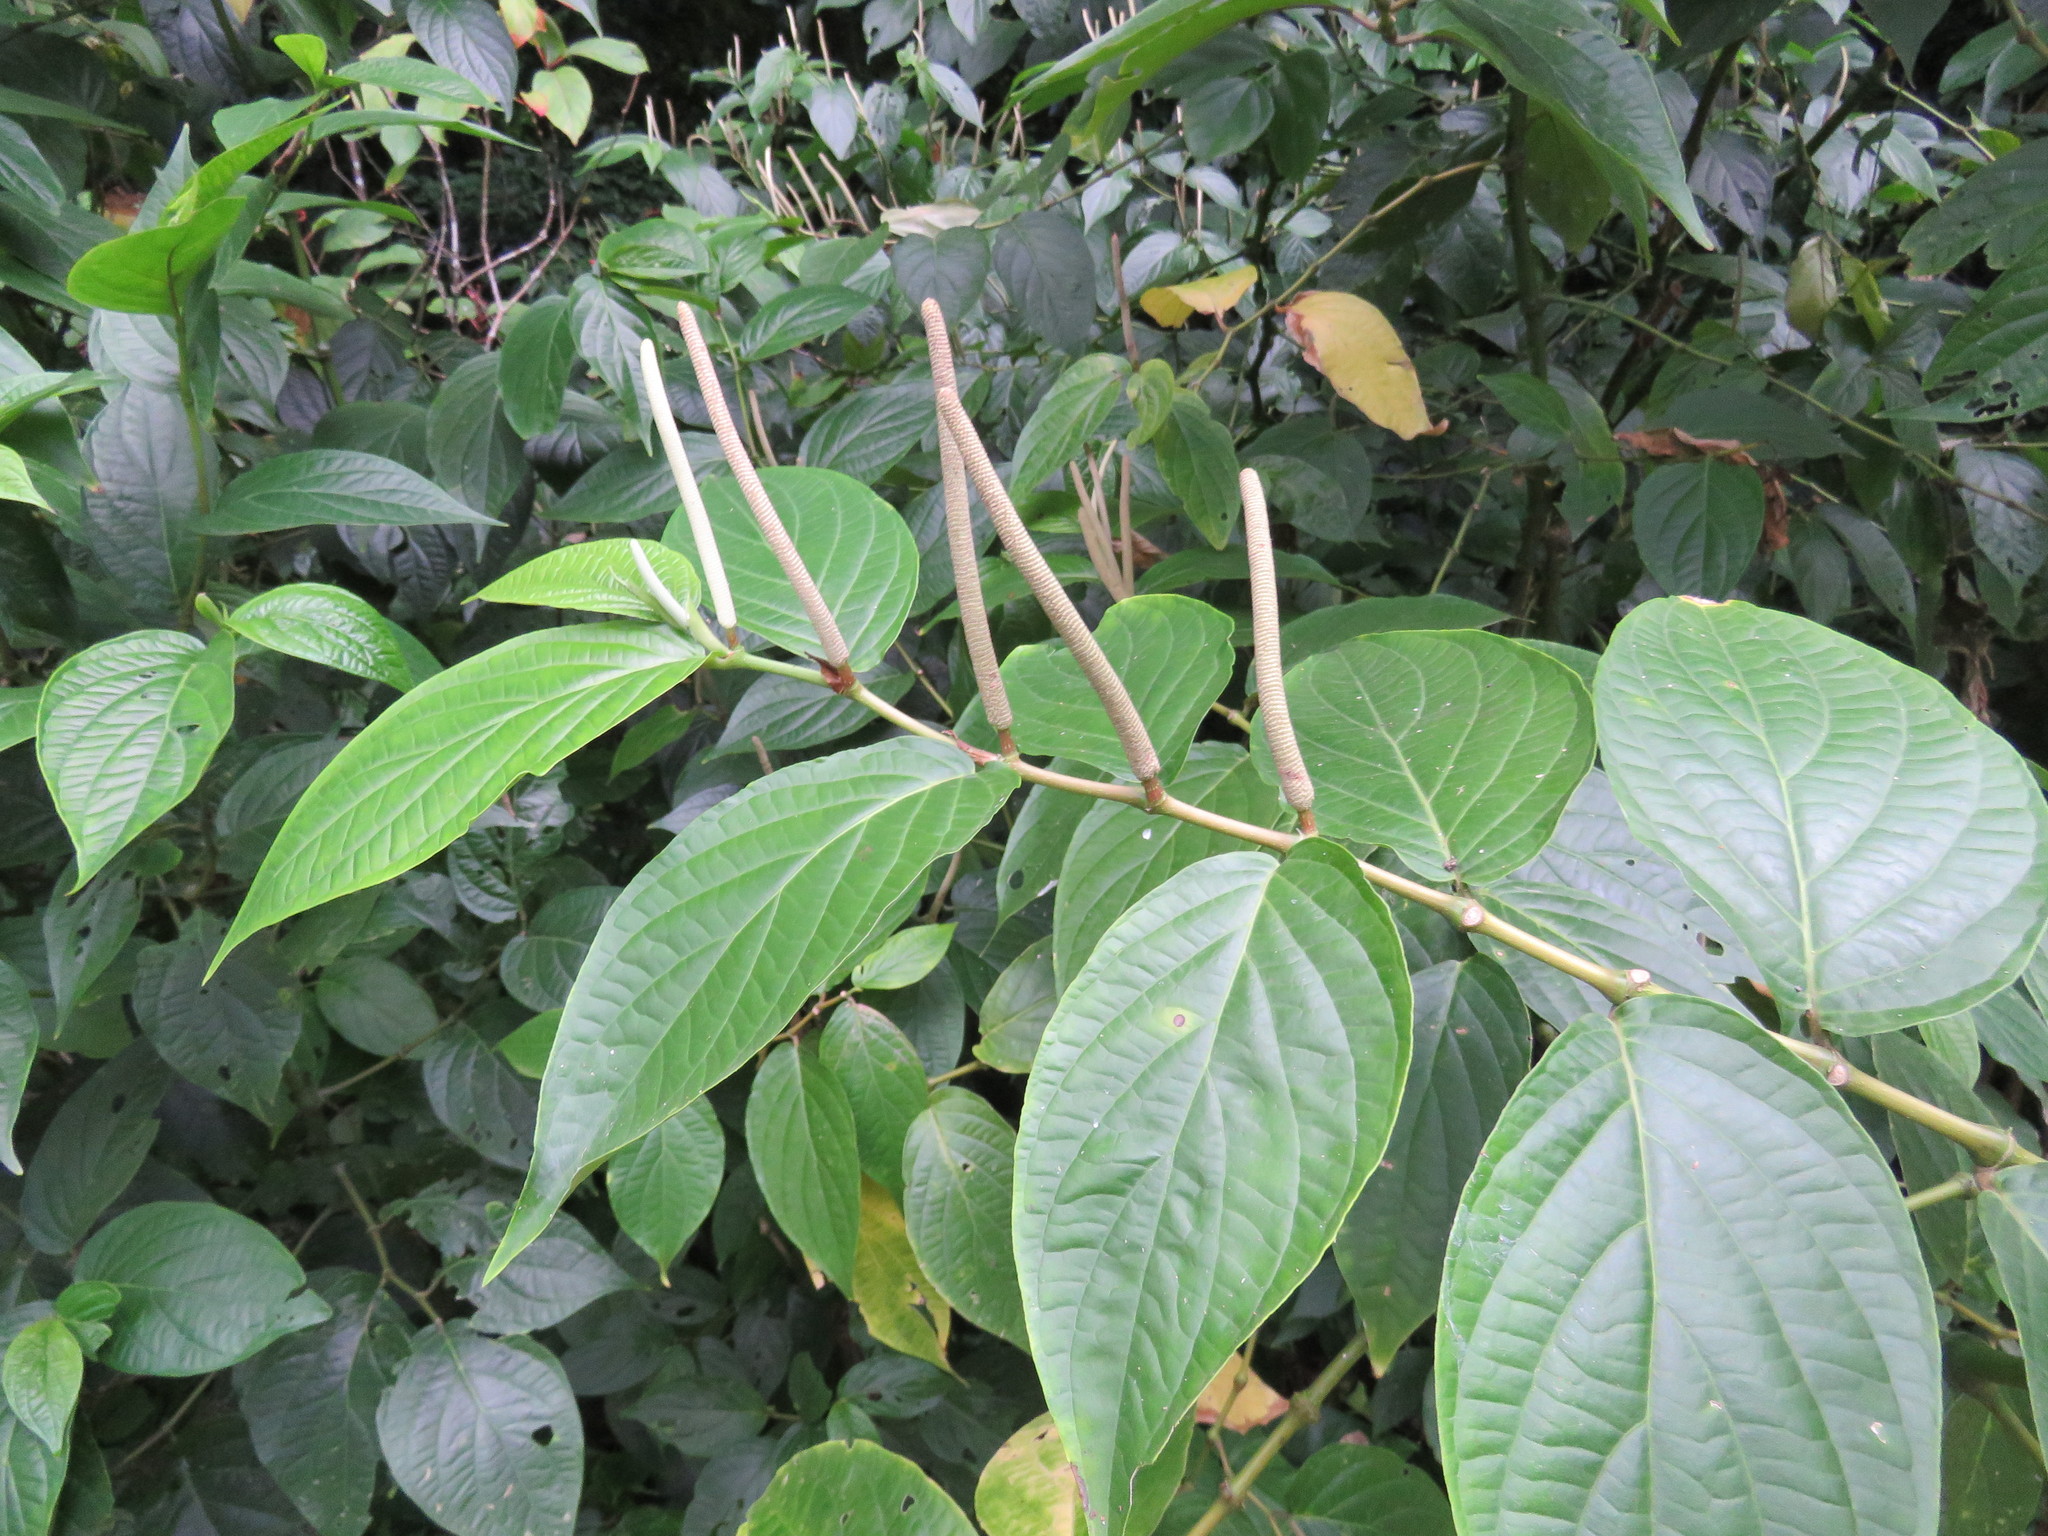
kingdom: Plantae
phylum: Tracheophyta
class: Magnoliopsida
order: Piperales
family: Piperaceae
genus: Piper
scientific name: Piper hispidum
